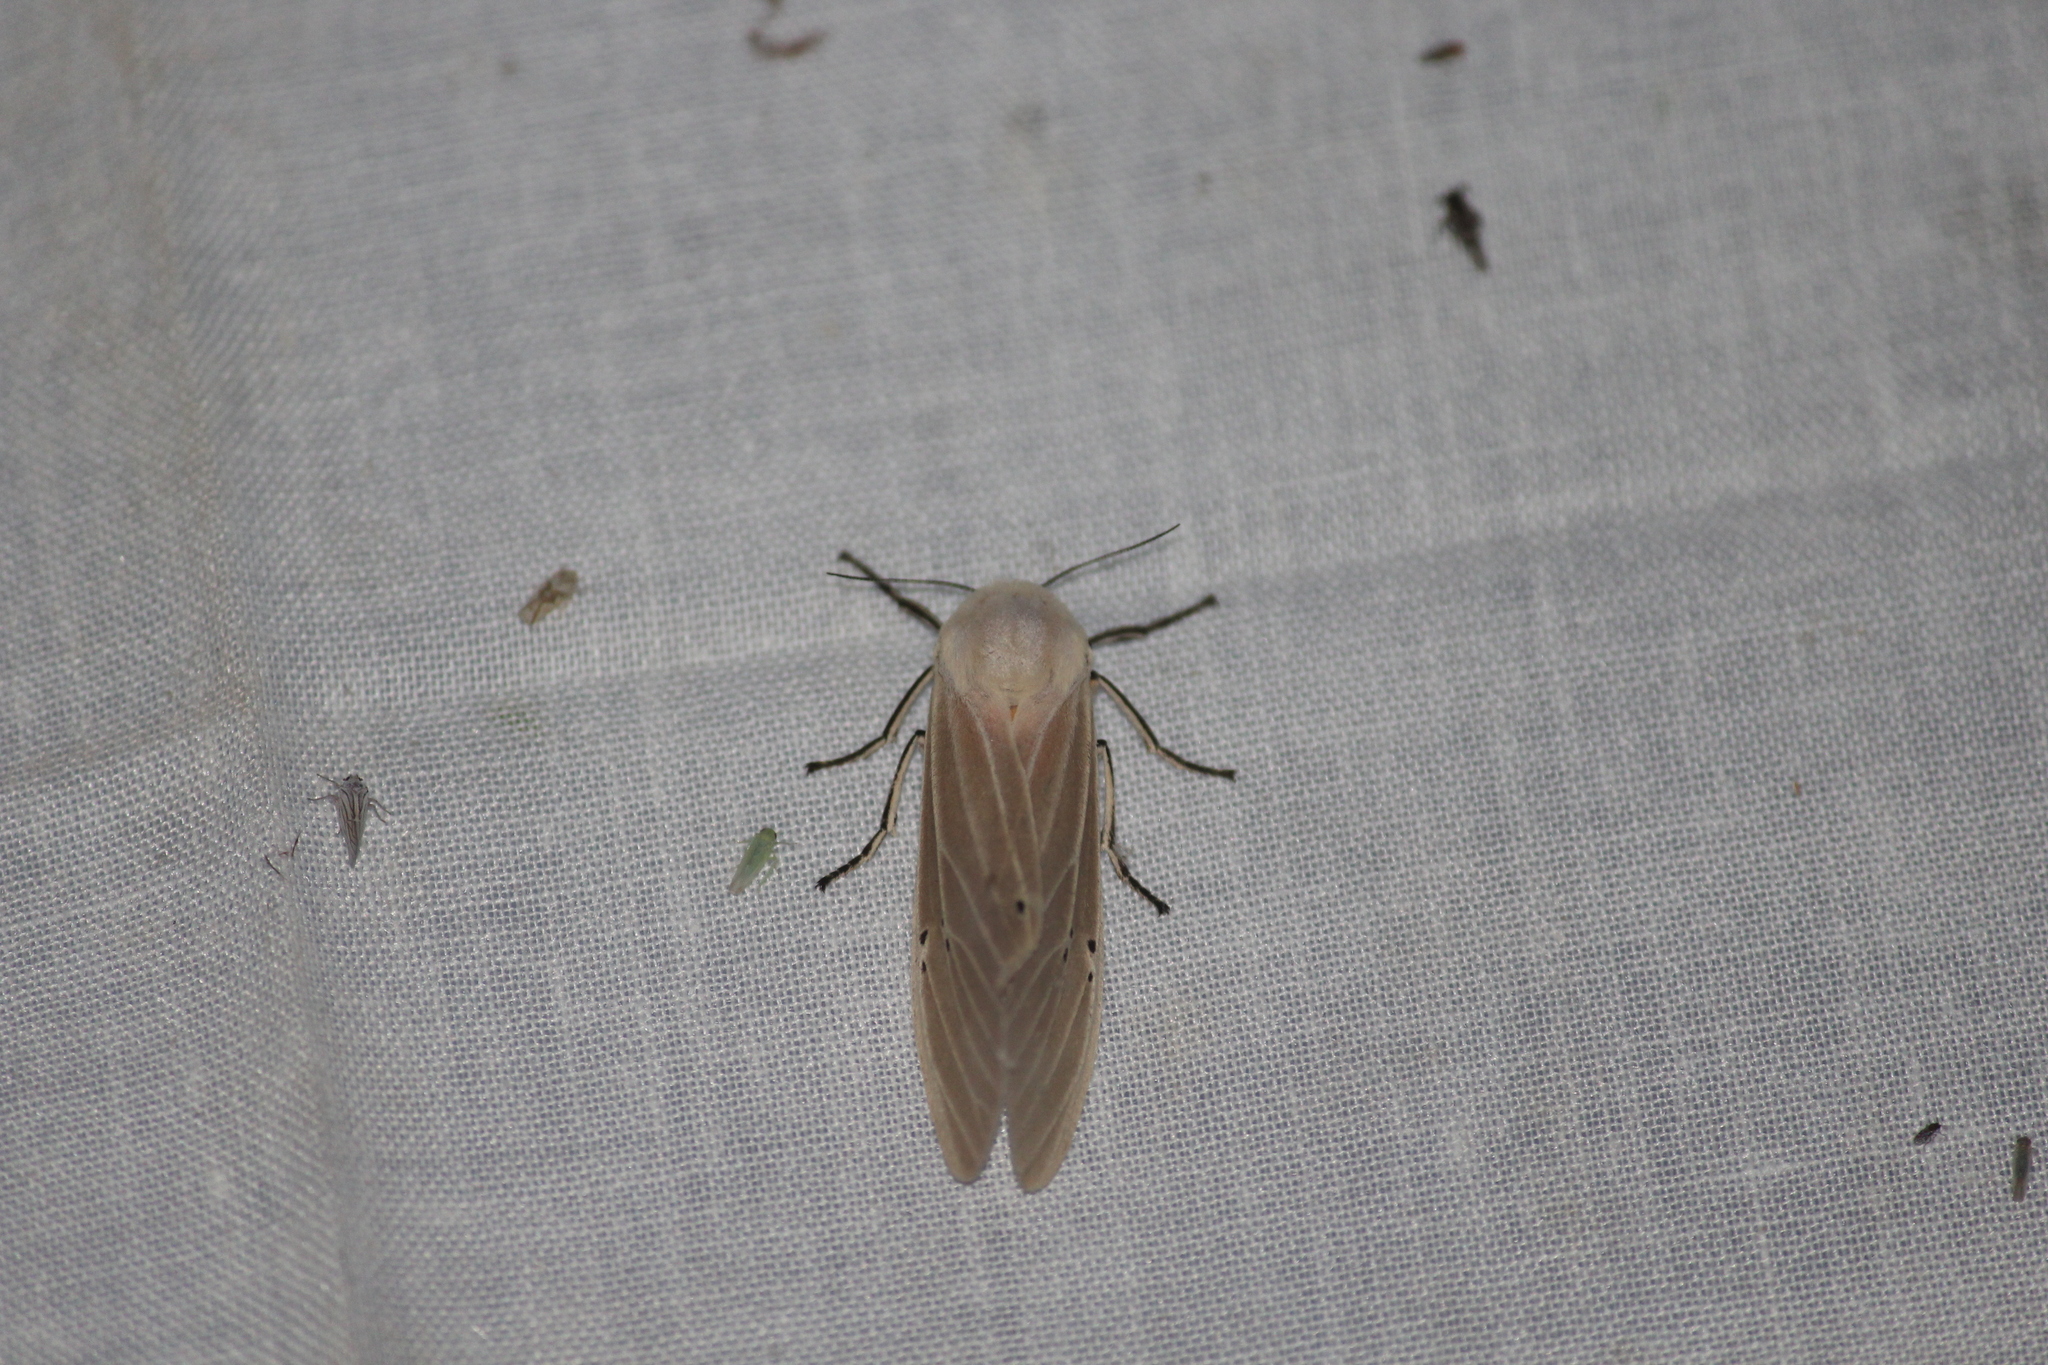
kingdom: Animalia
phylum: Arthropoda
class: Insecta
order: Lepidoptera
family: Erebidae
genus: Creatonotos
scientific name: Creatonotos transiens
